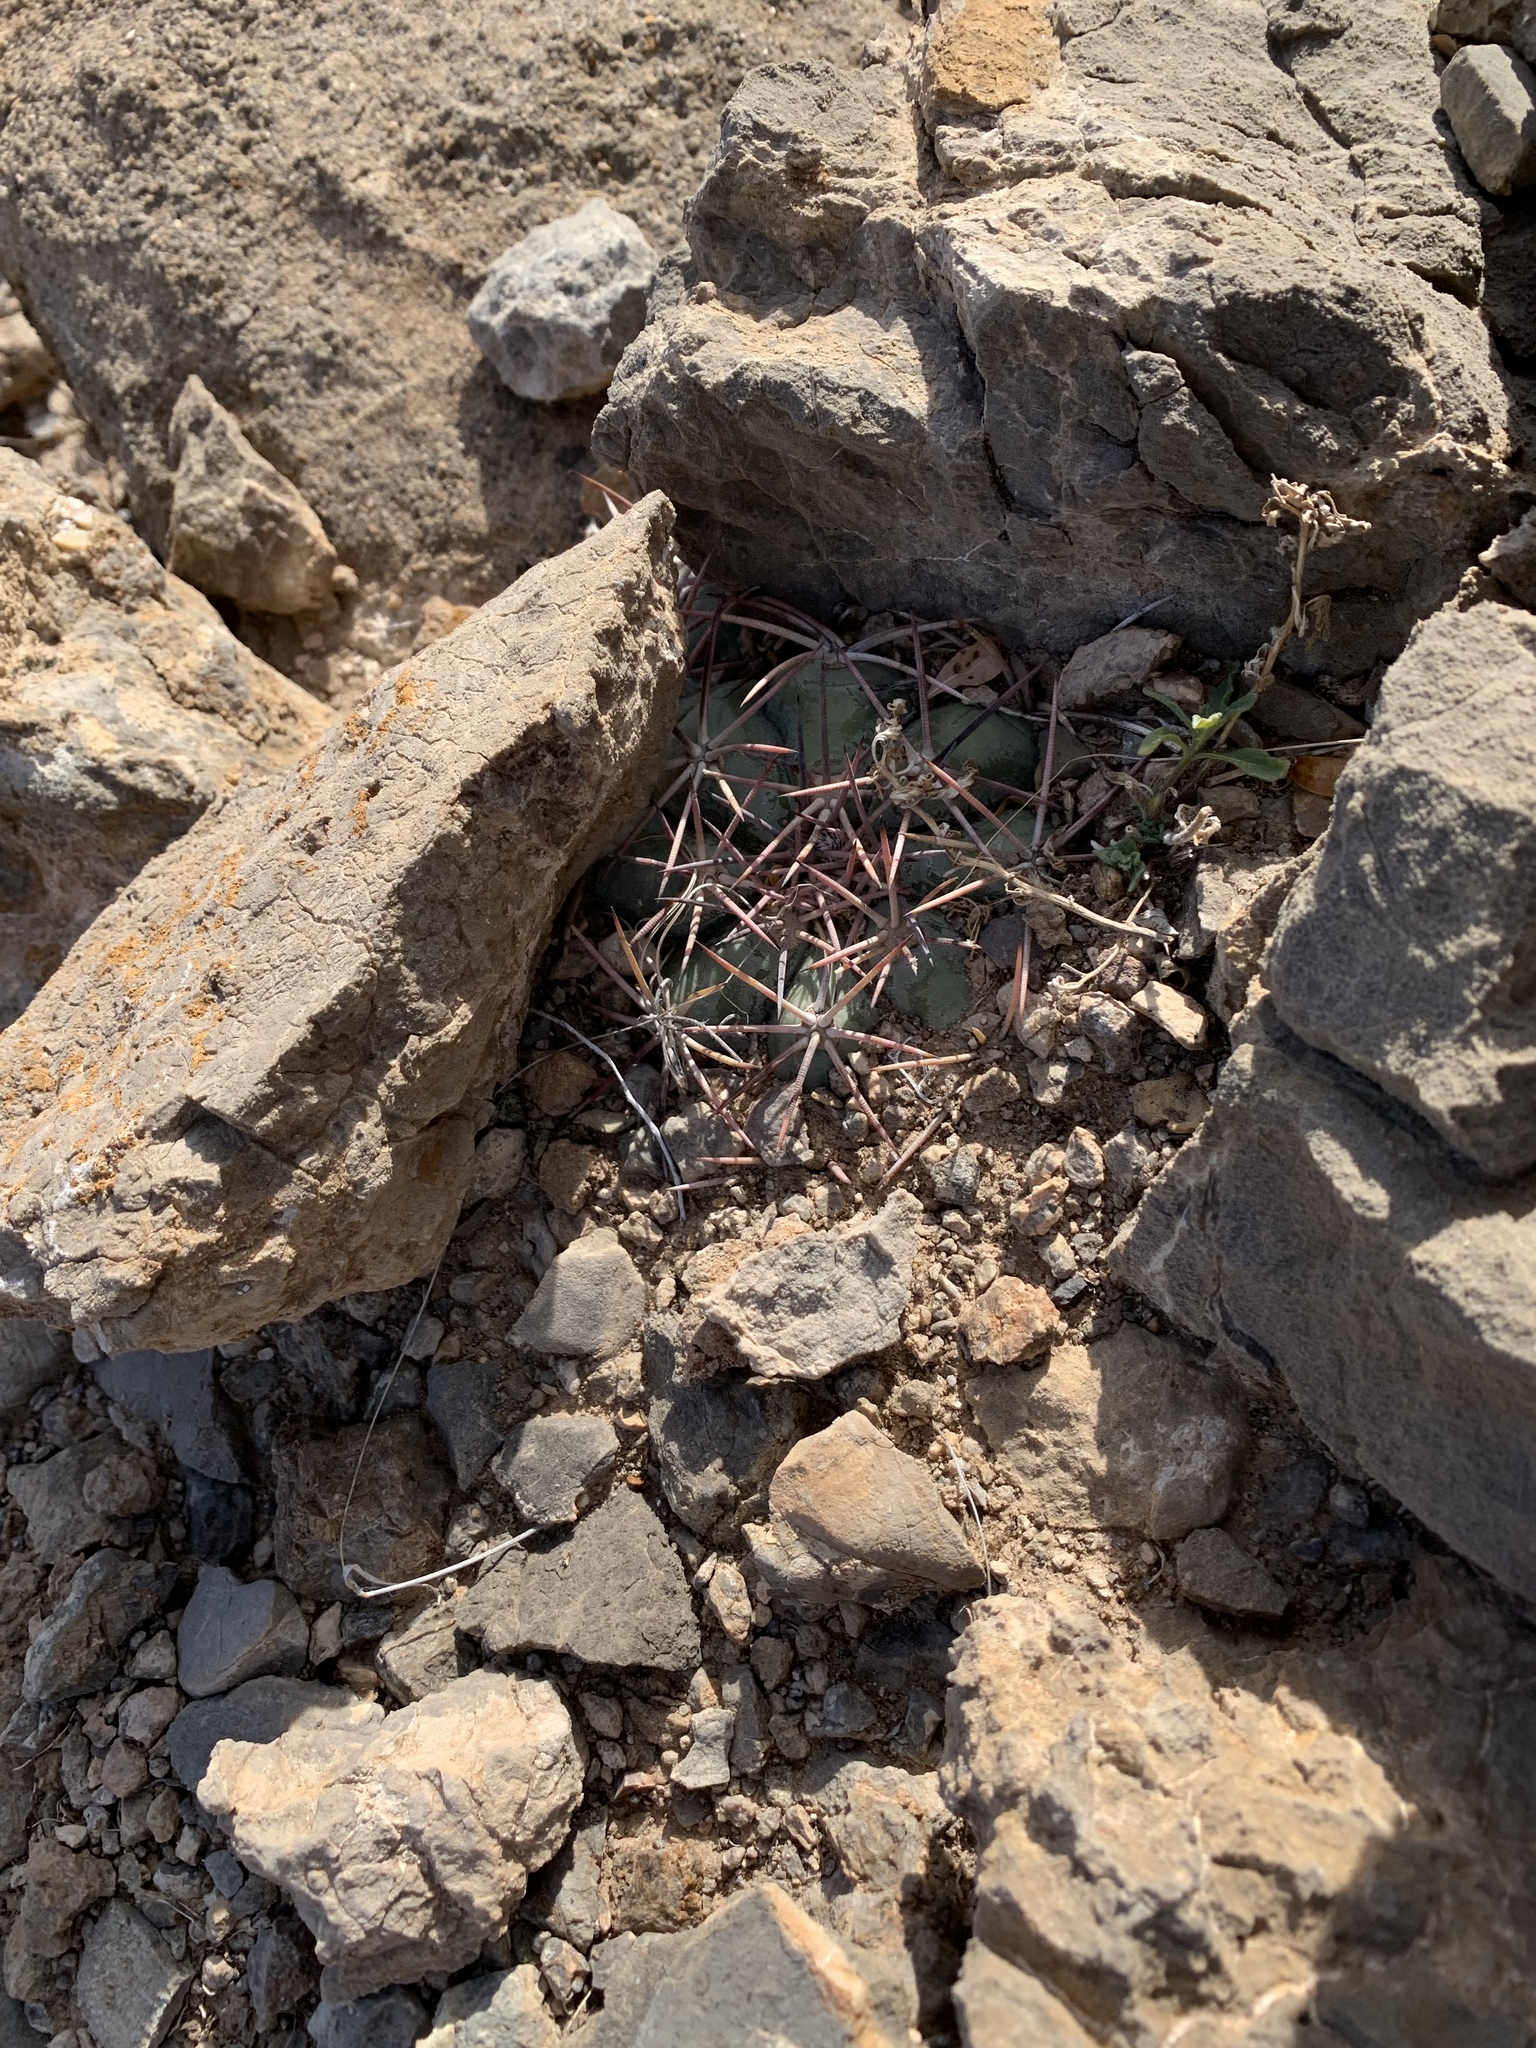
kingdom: Plantae
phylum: Tracheophyta
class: Magnoliopsida
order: Caryophyllales
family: Cactaceae
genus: Echinocactus
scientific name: Echinocactus horizonthalonius
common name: Devilshead
